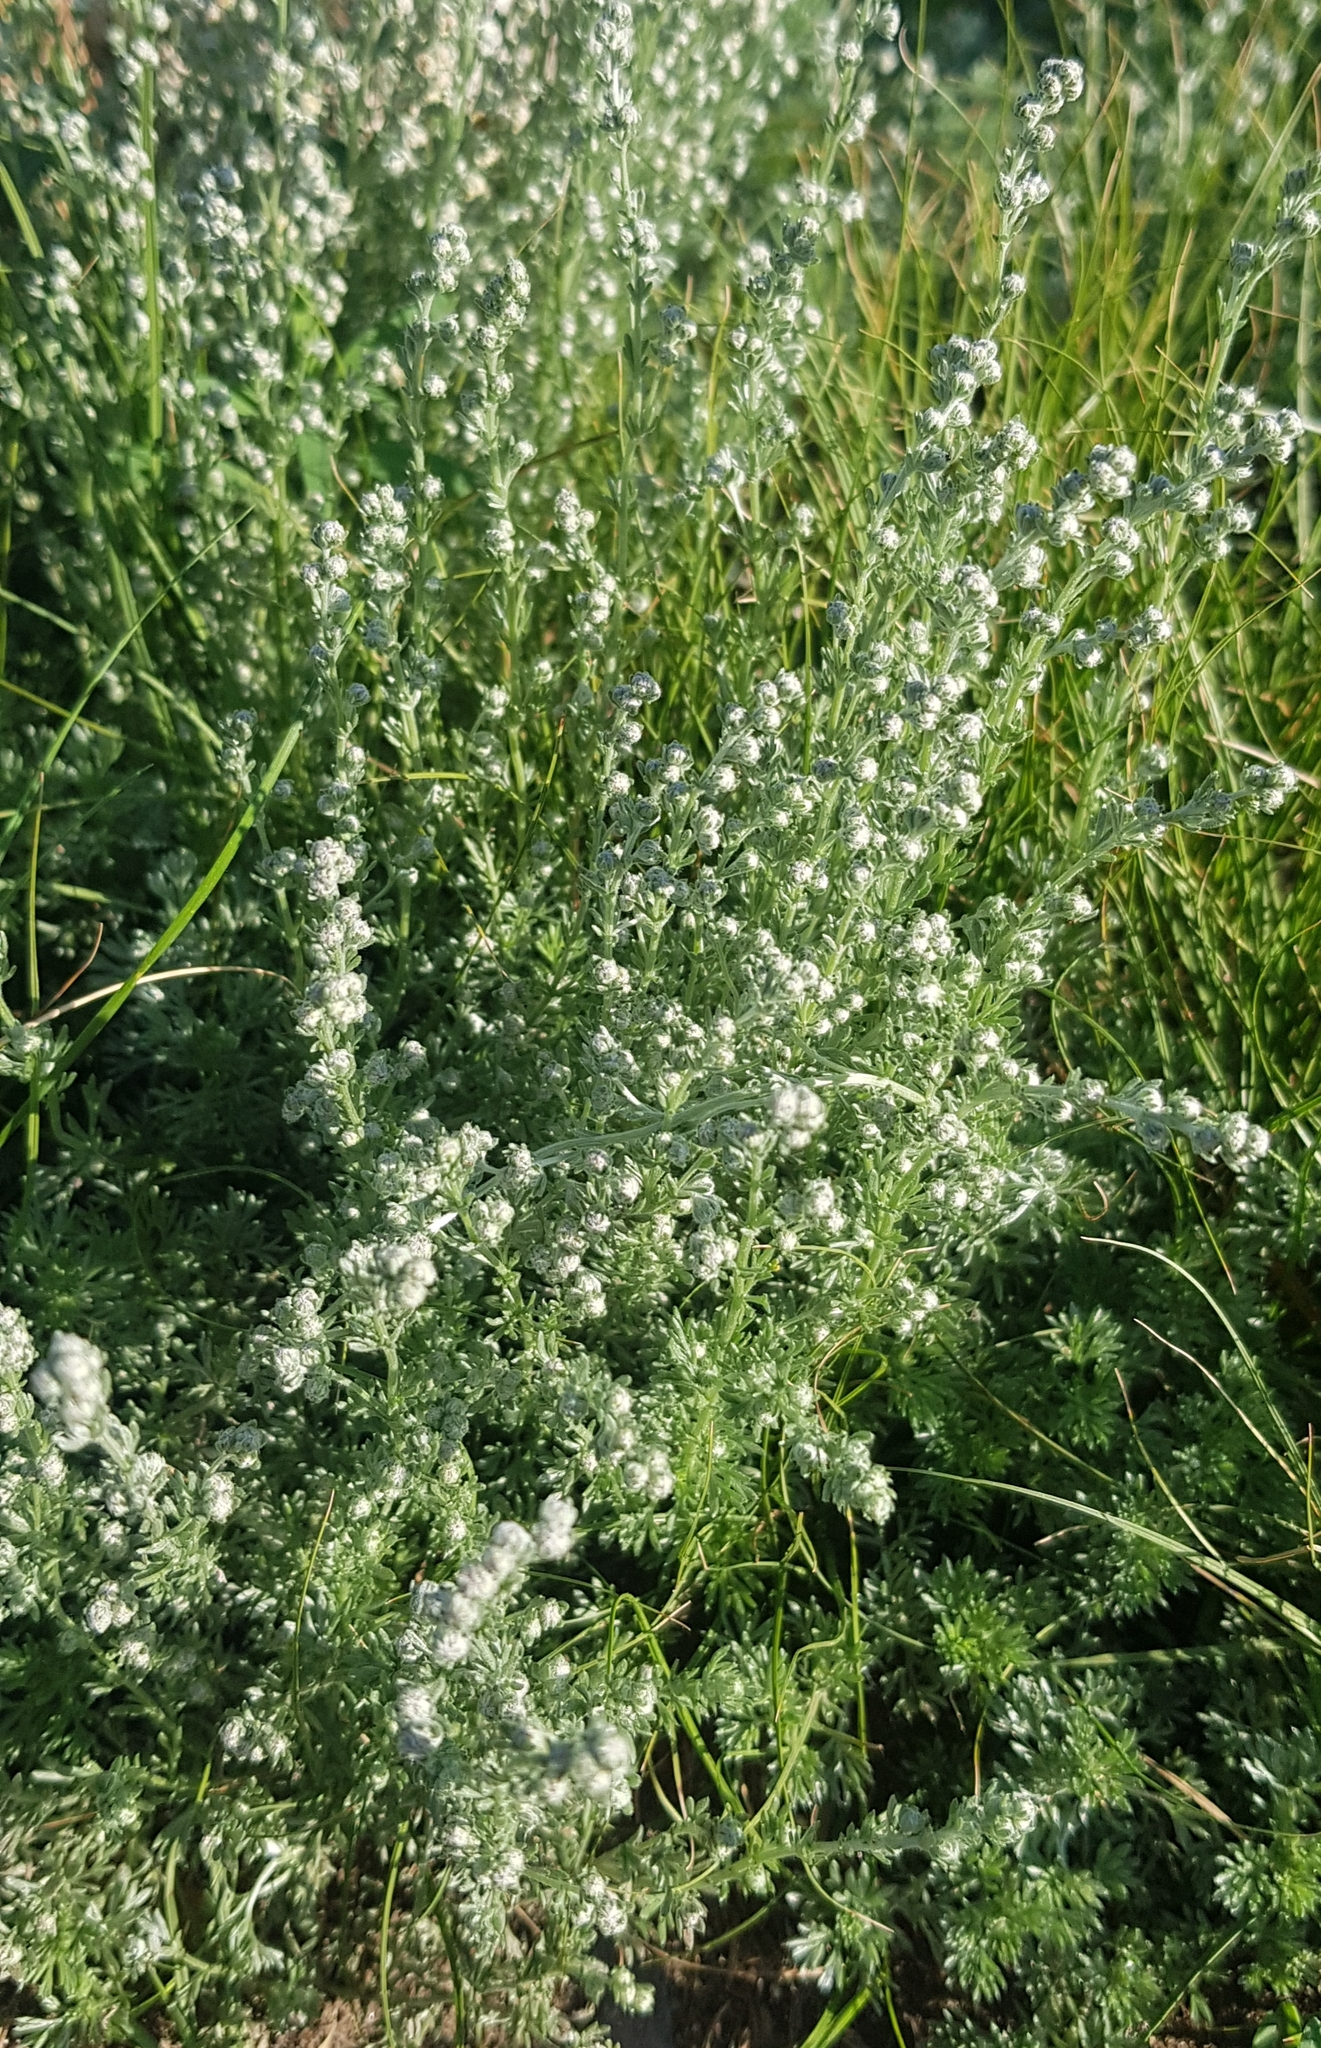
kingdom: Plantae
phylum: Tracheophyta
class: Magnoliopsida
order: Asterales
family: Asteraceae
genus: Artemisia
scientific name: Artemisia frigida
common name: Prairie sagewort
